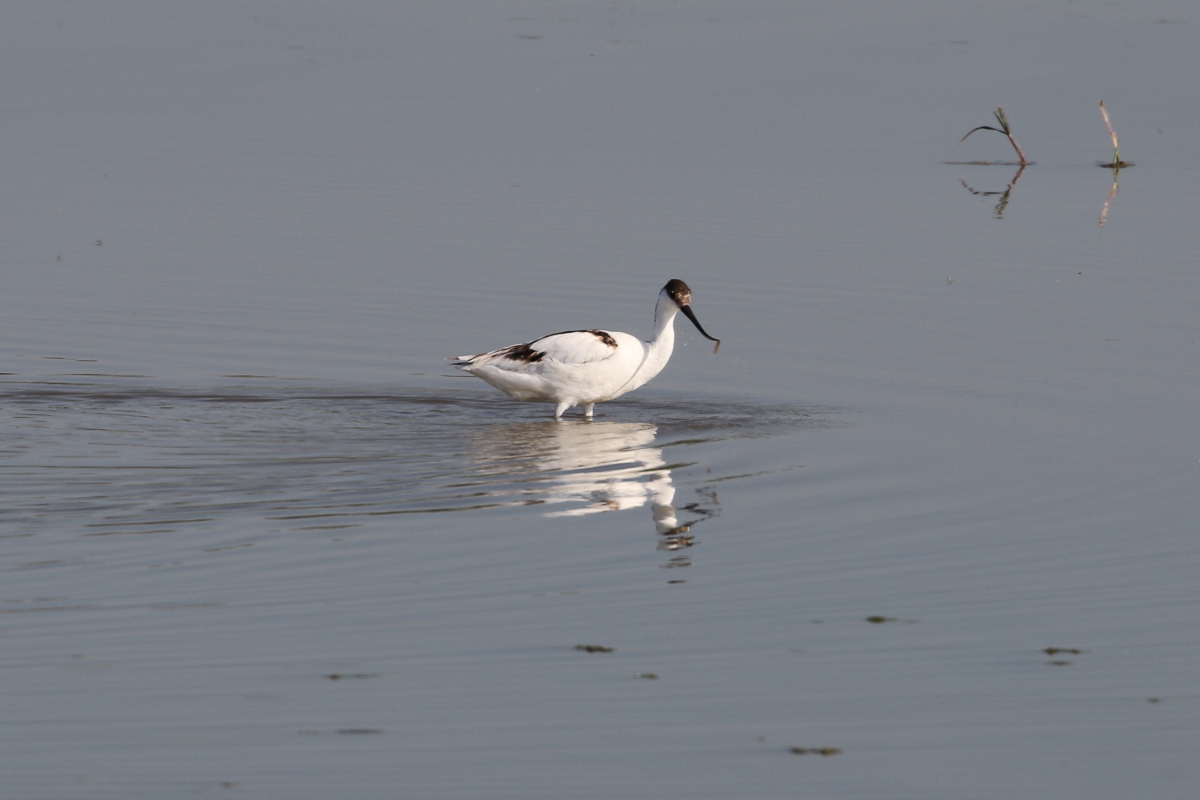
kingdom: Animalia
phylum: Chordata
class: Aves
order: Charadriiformes
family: Recurvirostridae
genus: Recurvirostra
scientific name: Recurvirostra avosetta
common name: Pied avocet
